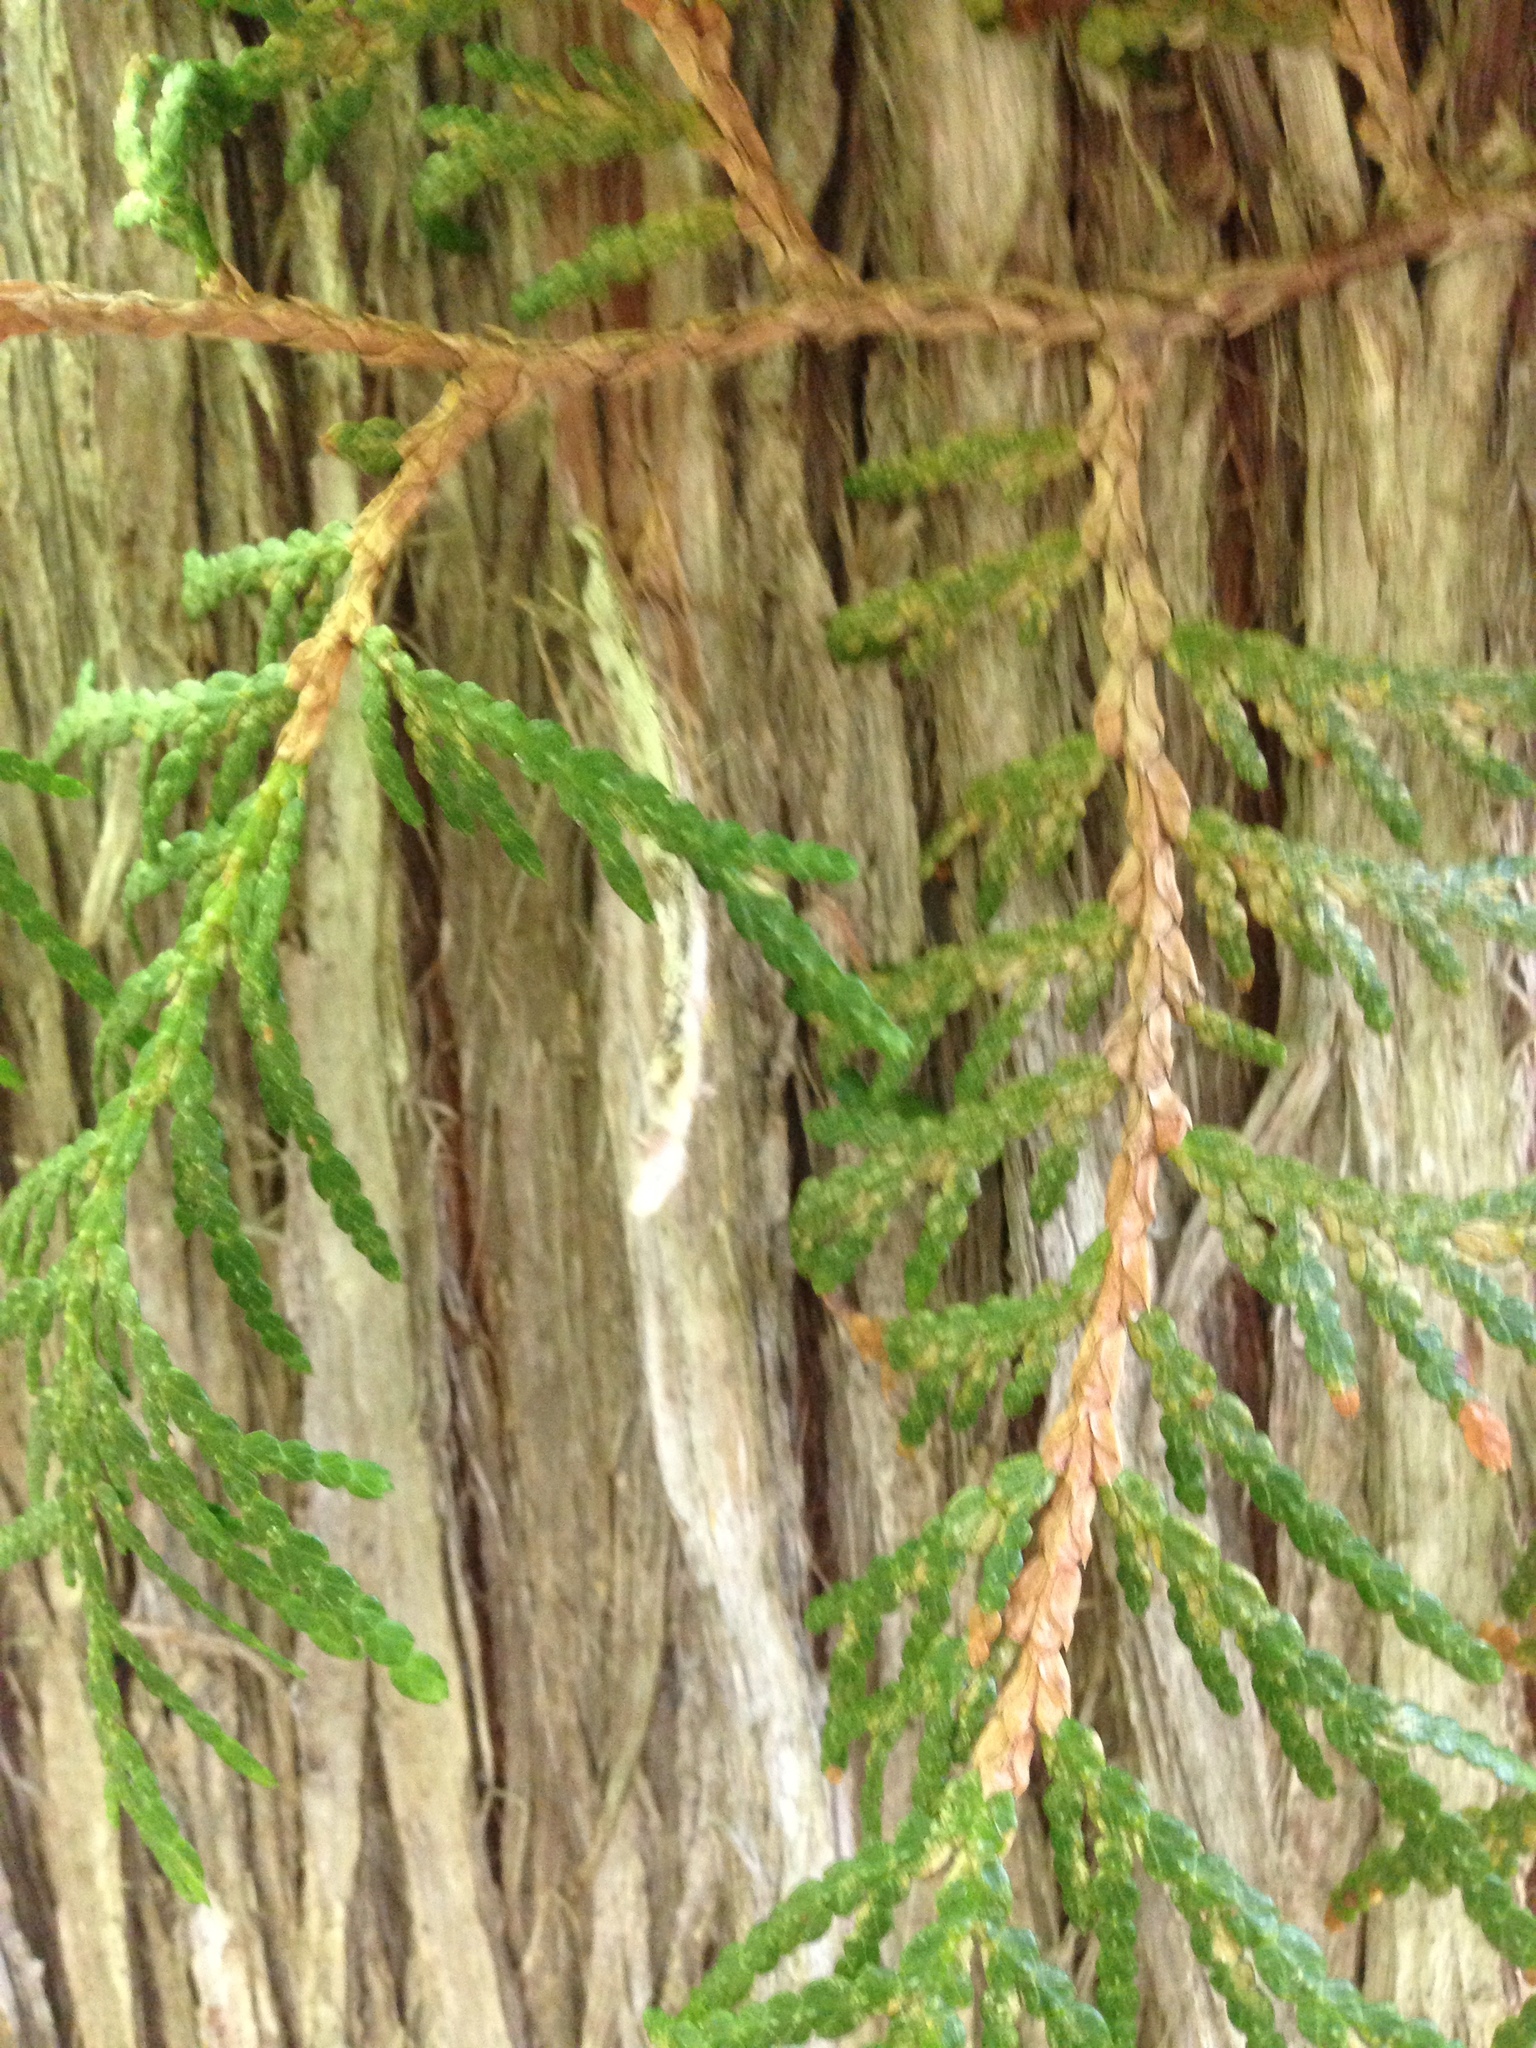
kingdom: Plantae
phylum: Tracheophyta
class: Pinopsida
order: Pinales
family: Cupressaceae
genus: Thuja
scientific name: Thuja occidentalis
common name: Northern white-cedar
